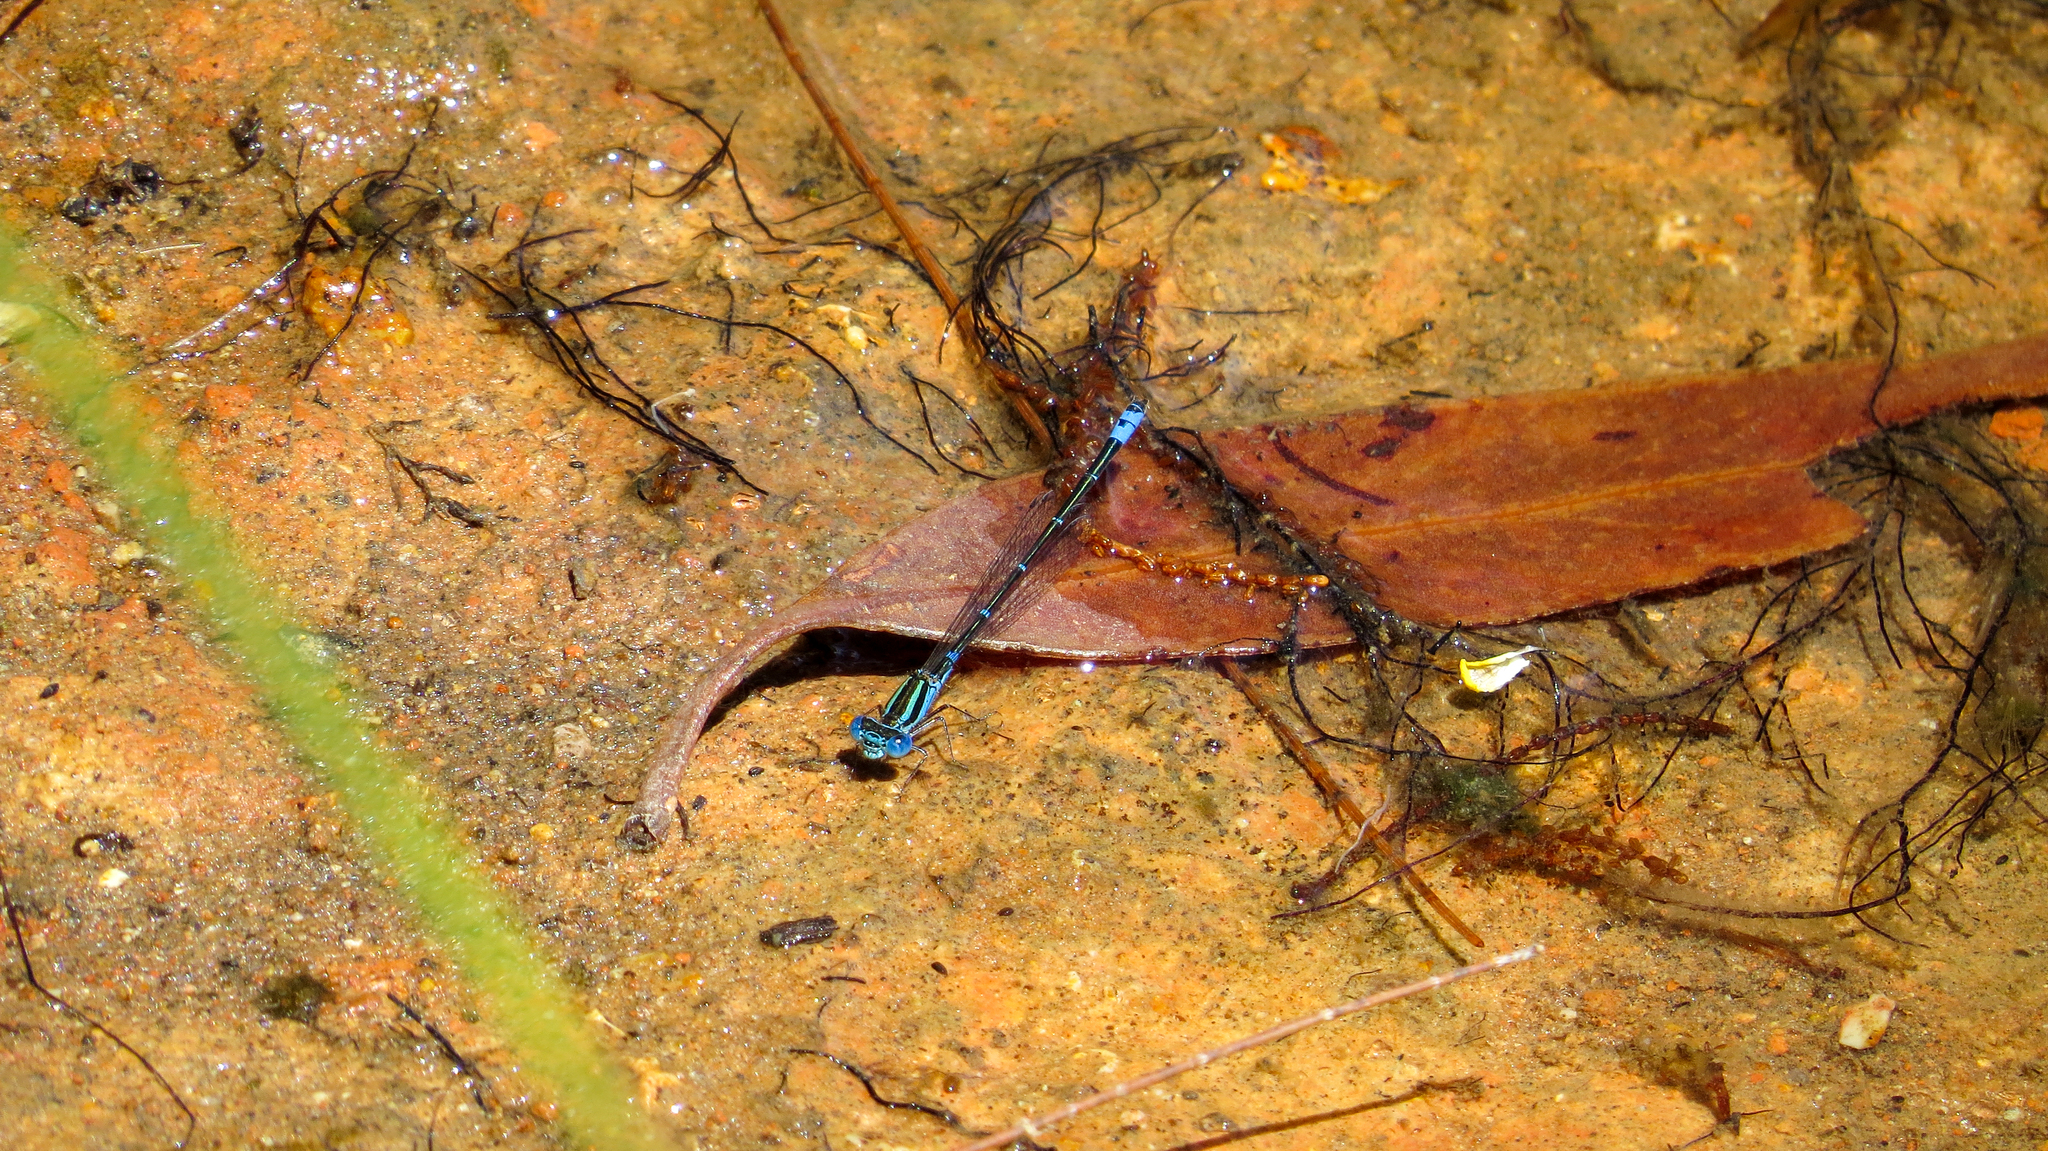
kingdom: Animalia
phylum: Arthropoda
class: Insecta
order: Odonata
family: Coenagrionidae
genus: Austroagrion
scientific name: Austroagrion watsoni
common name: Eastern billabongfly
